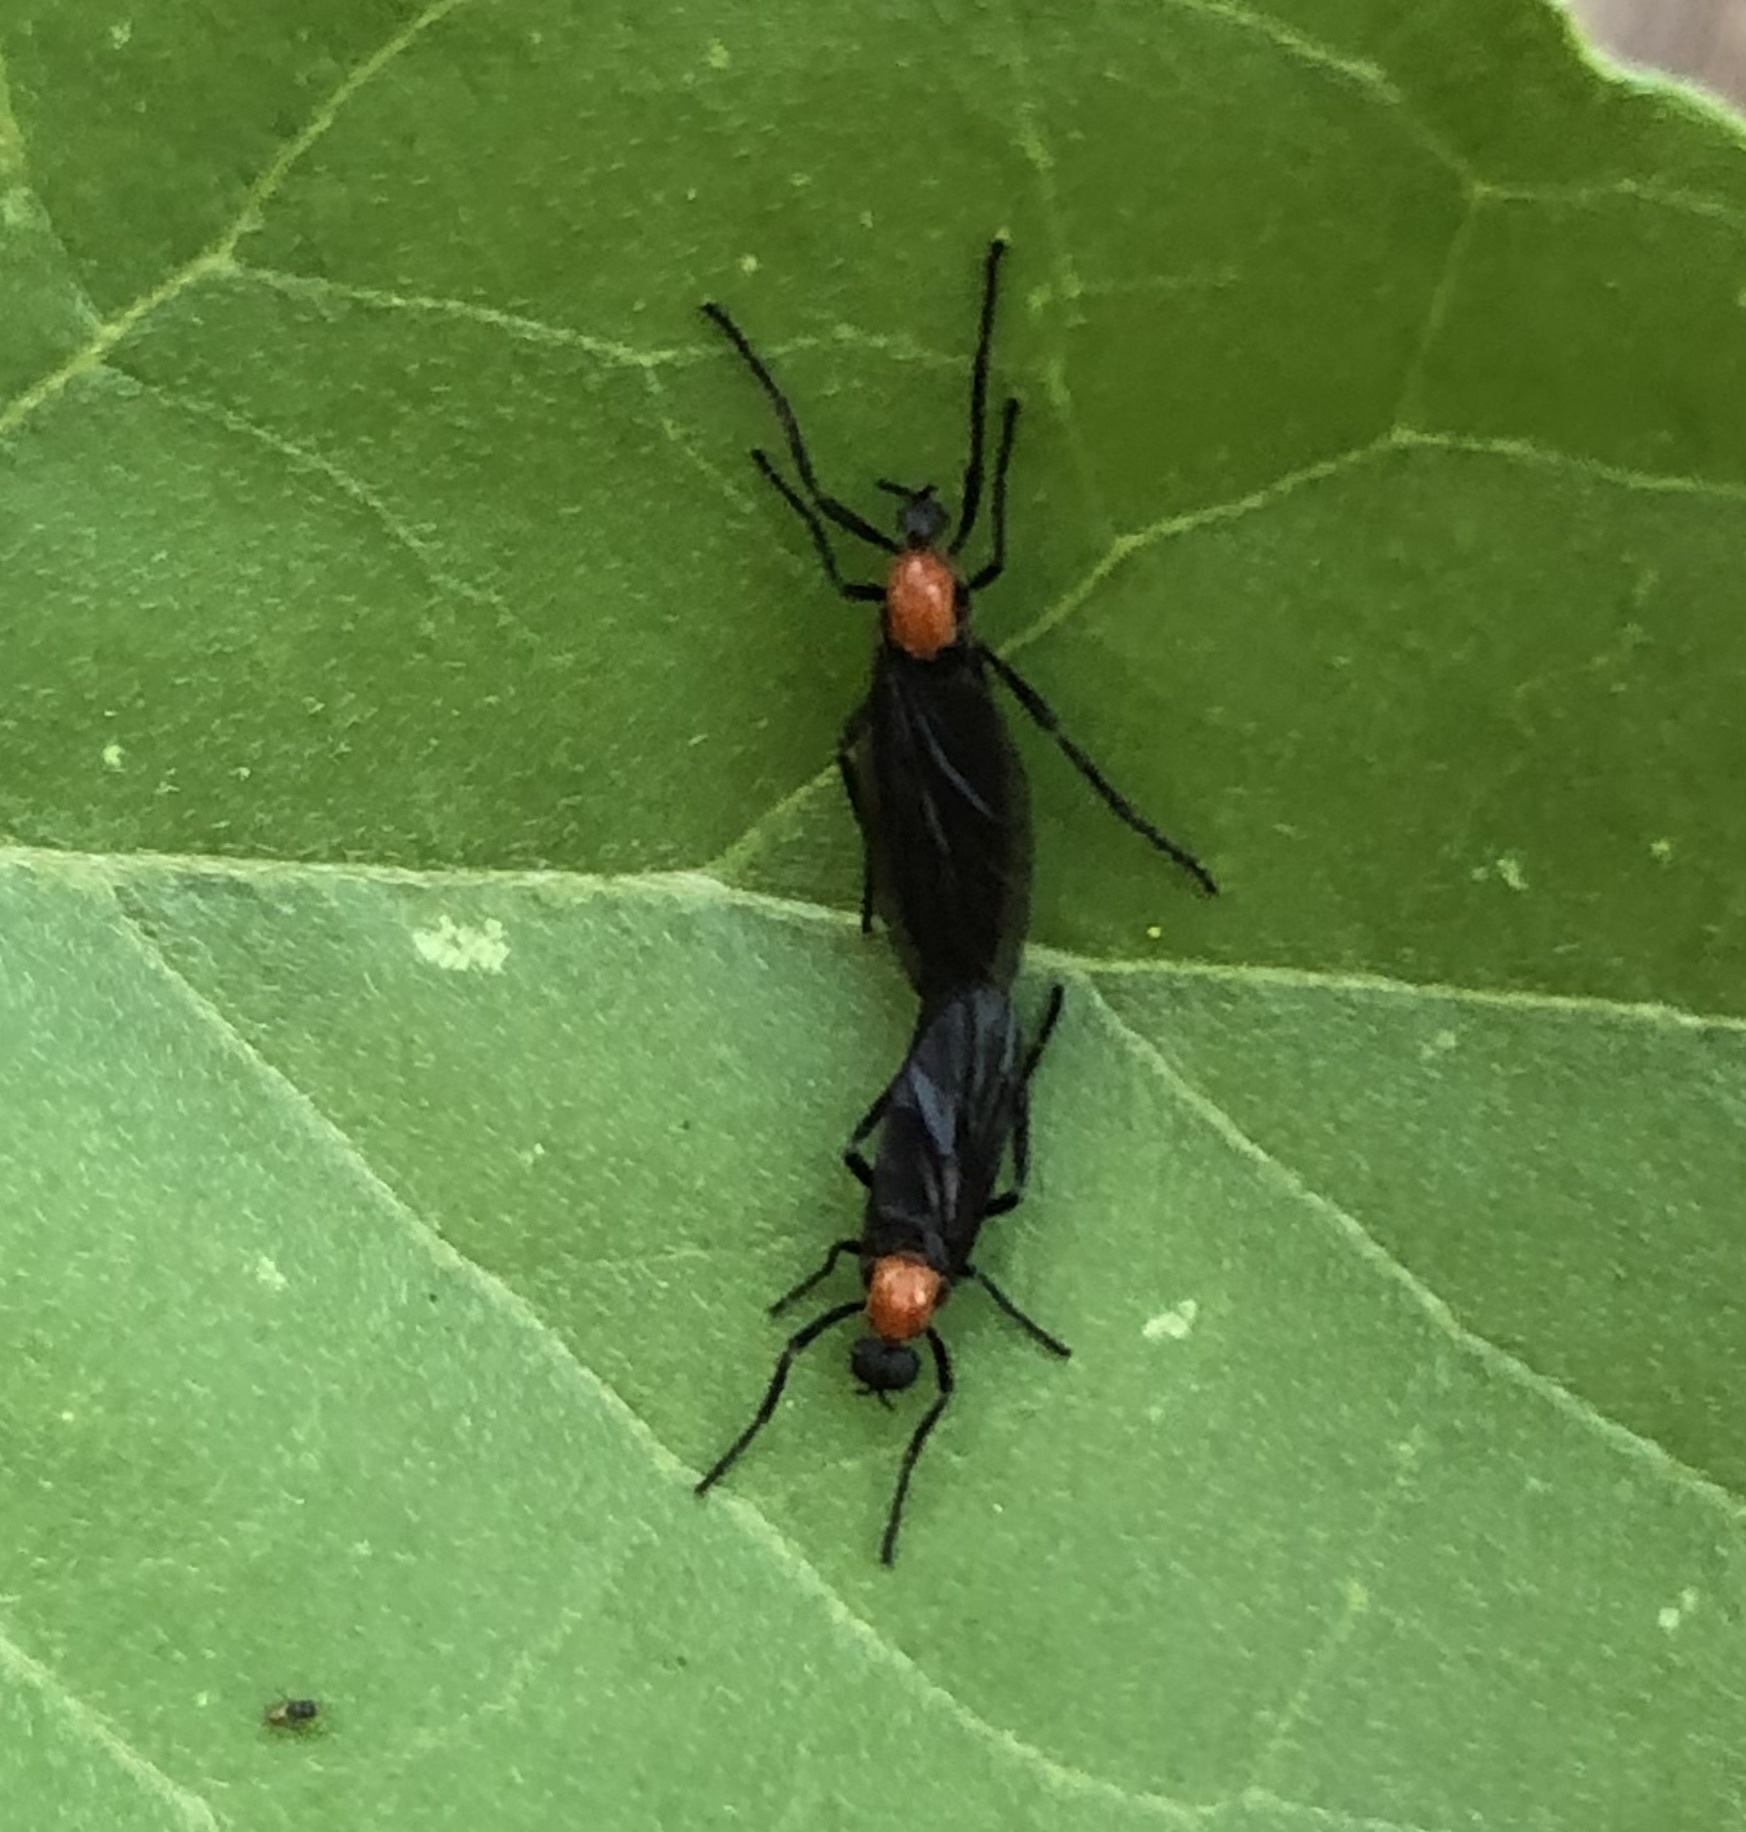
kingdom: Animalia
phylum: Arthropoda
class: Insecta
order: Diptera
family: Bibionidae
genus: Plecia
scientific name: Plecia nearctica
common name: March fly
